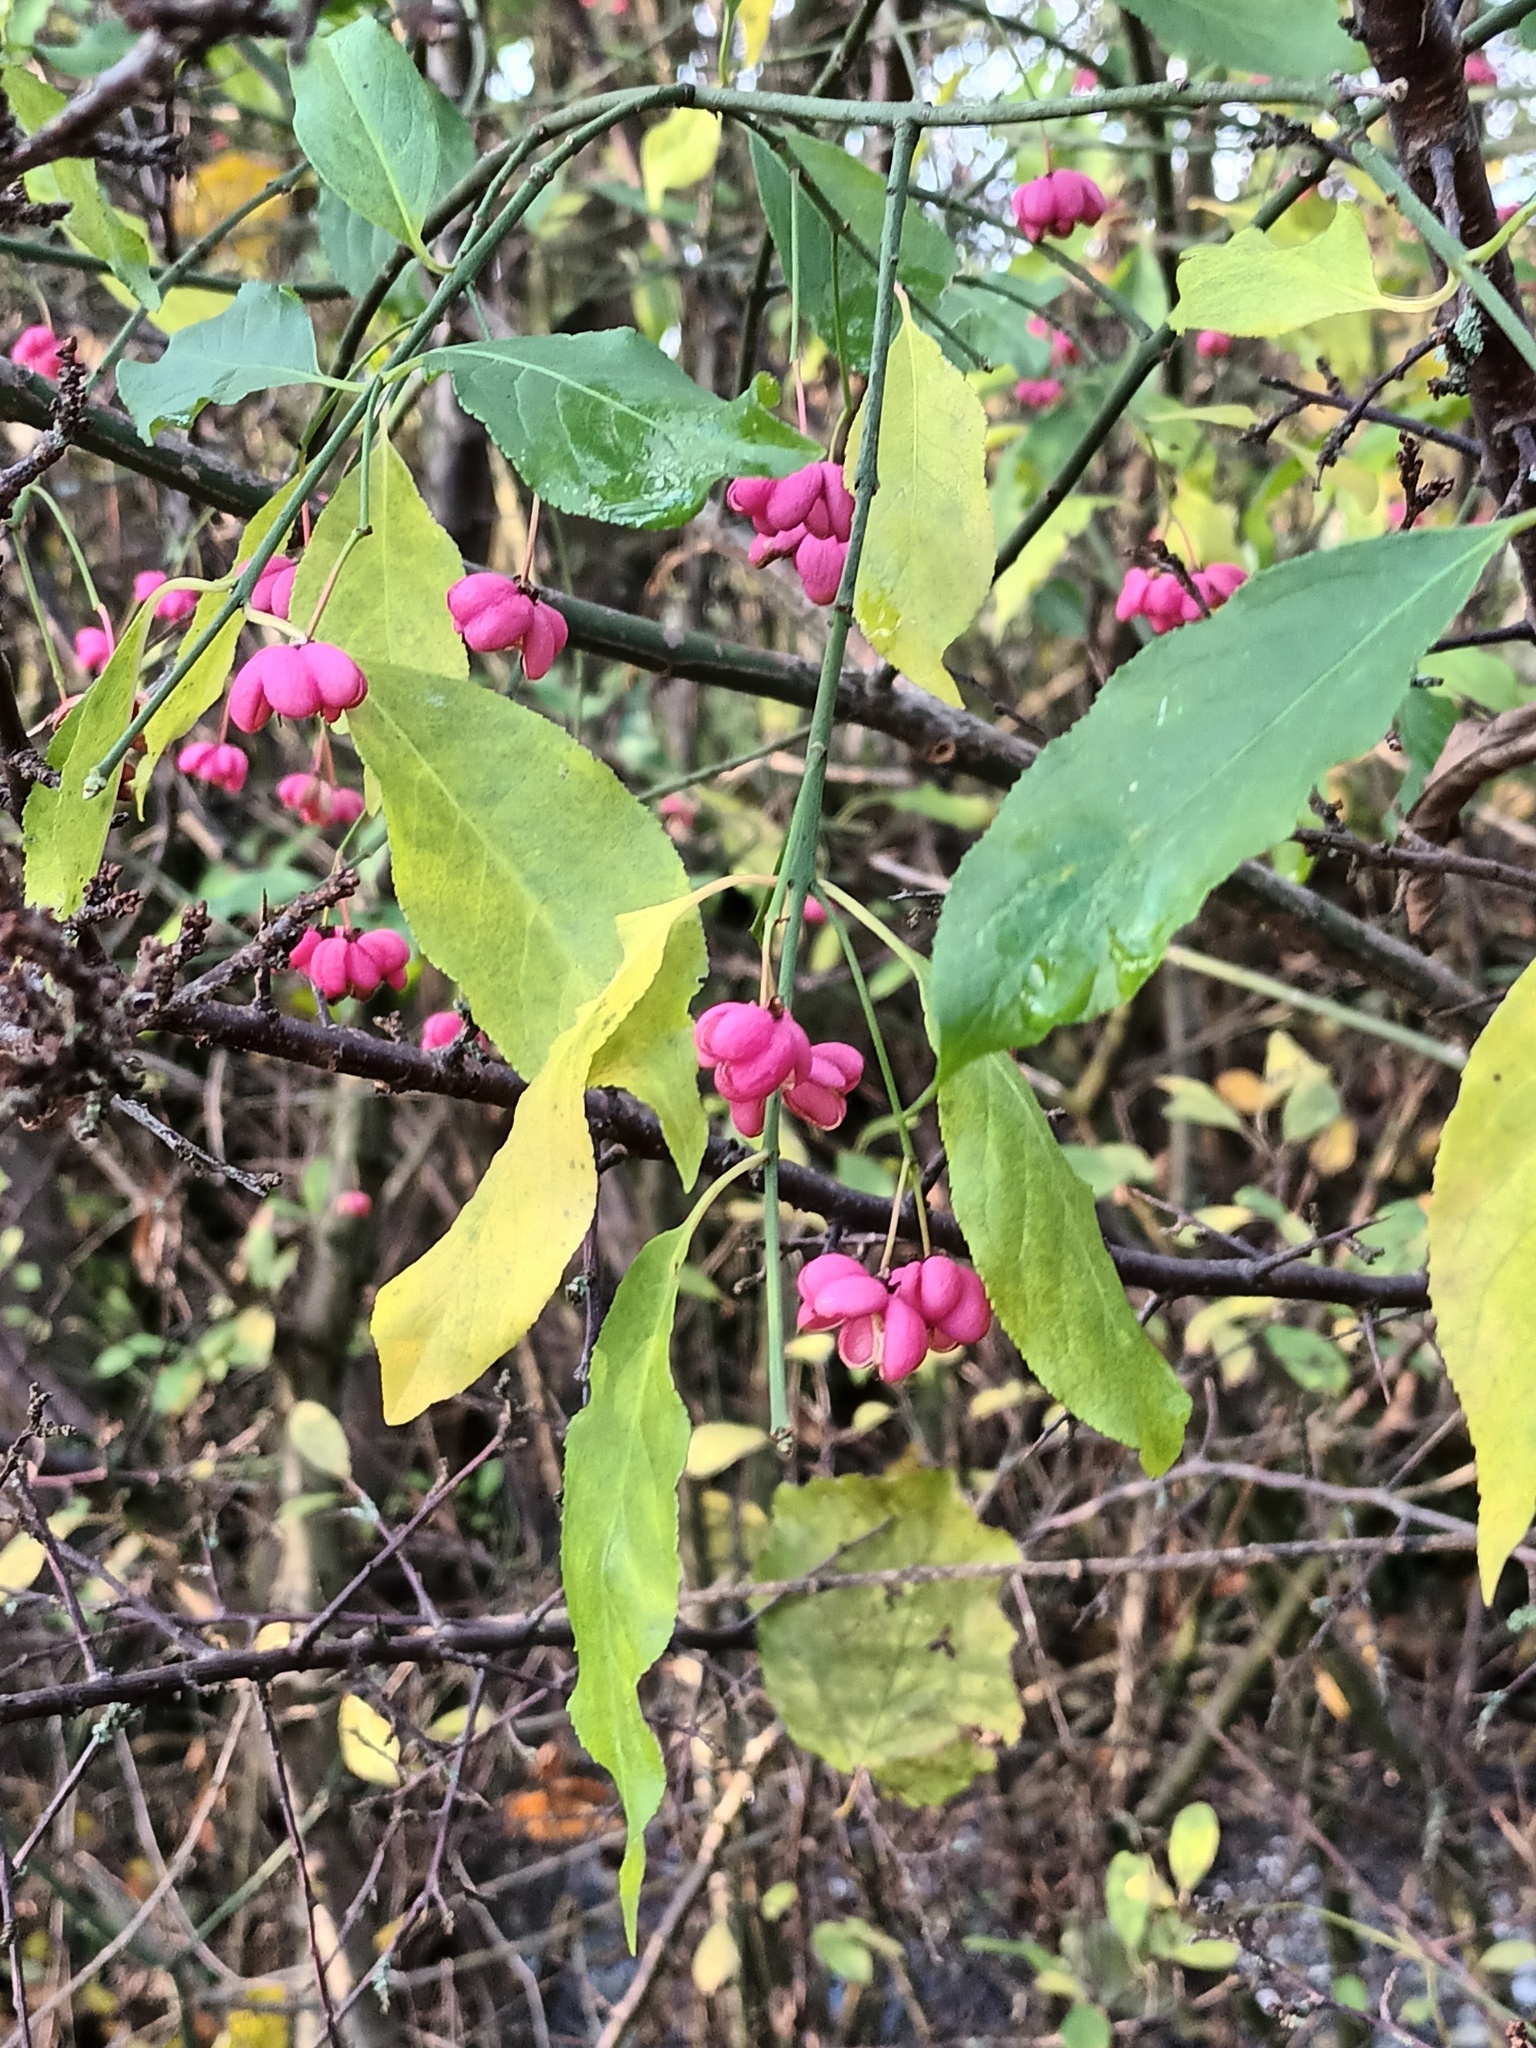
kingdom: Plantae
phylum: Tracheophyta
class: Magnoliopsida
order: Celastrales
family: Celastraceae
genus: Euonymus
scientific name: Euonymus europaeus
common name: Spindle
